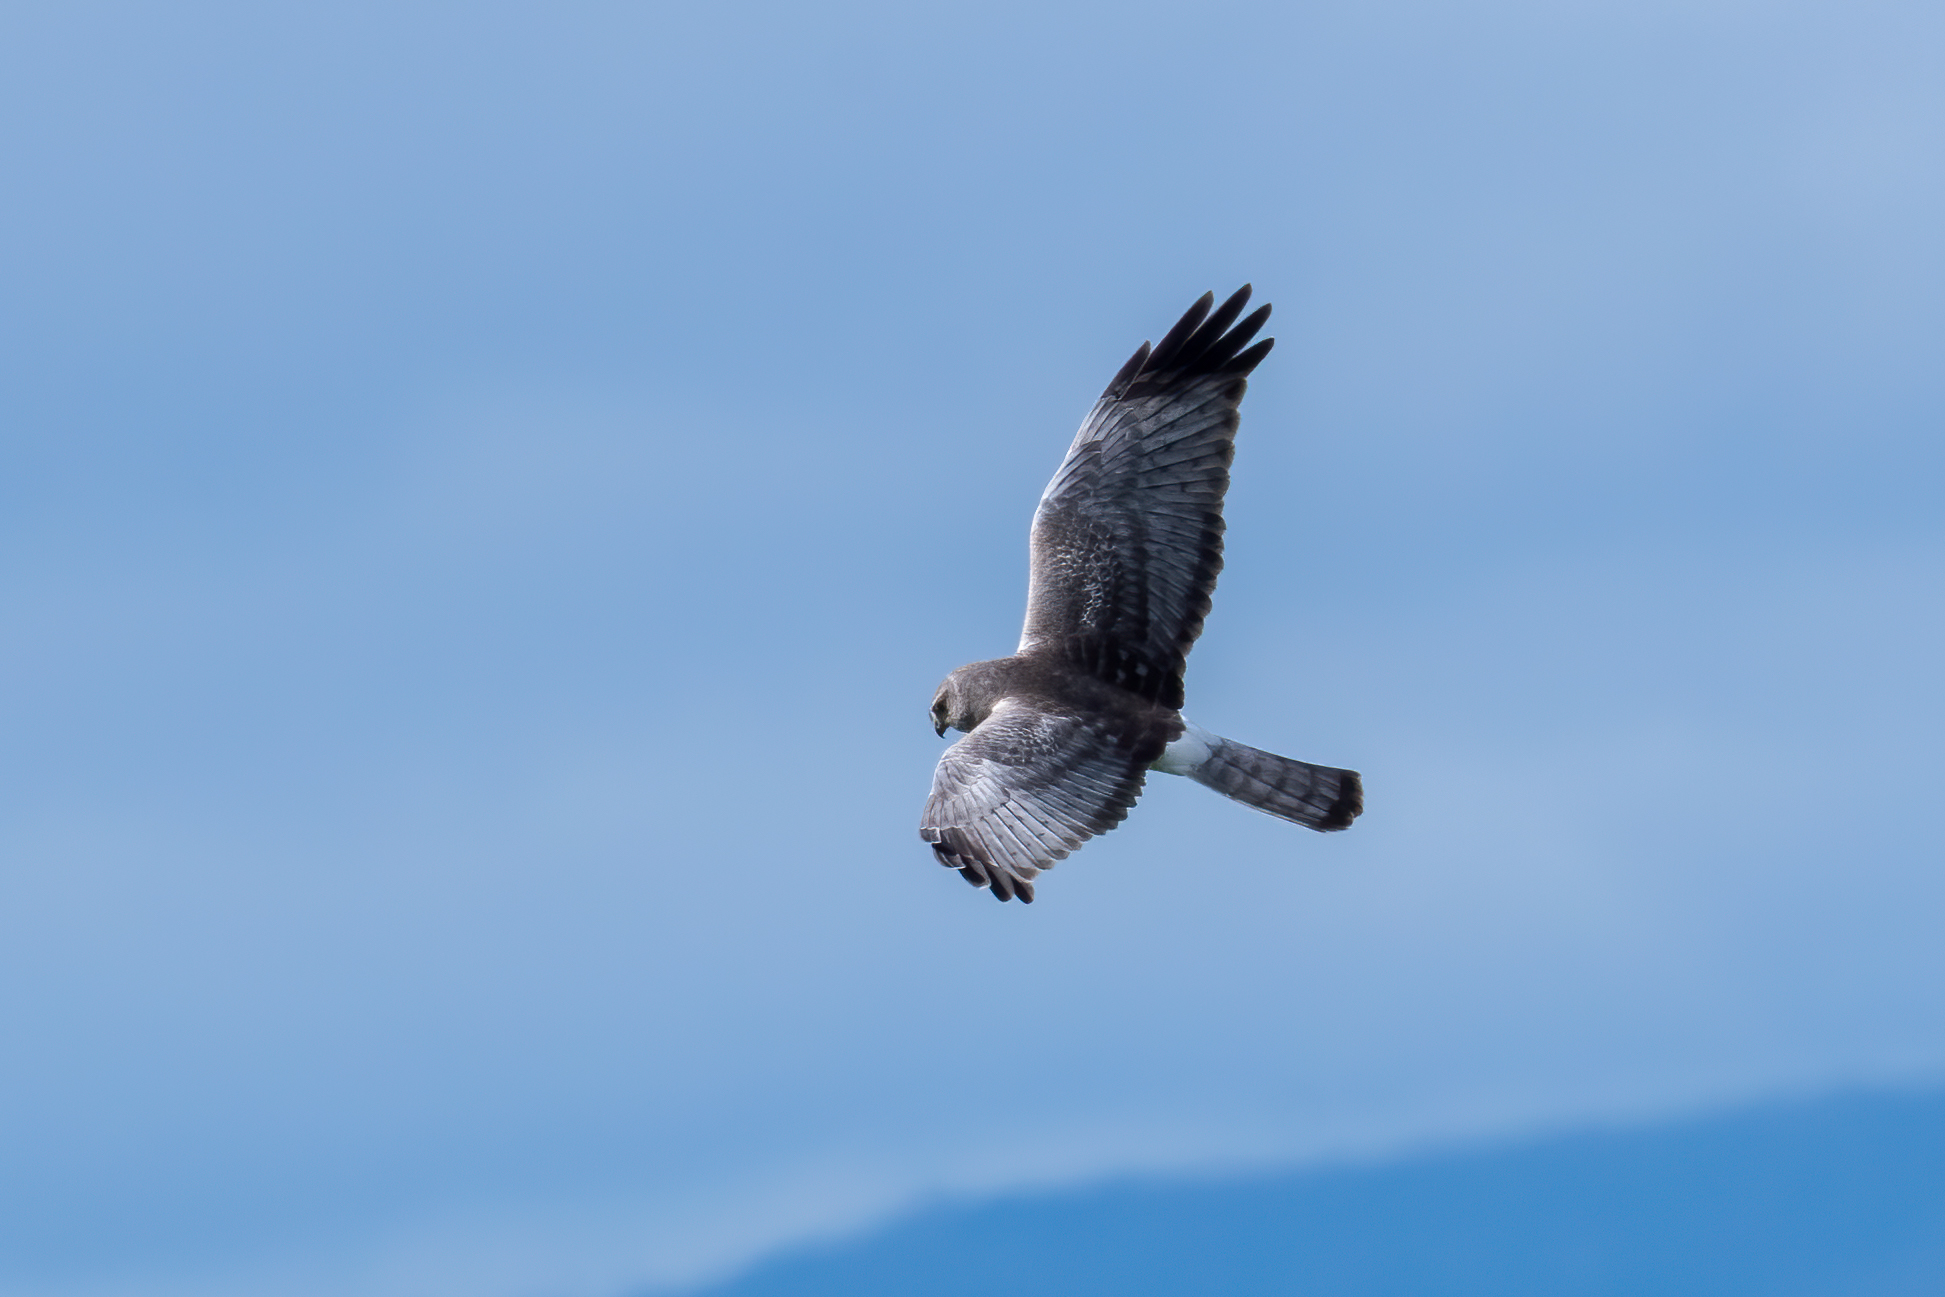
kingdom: Animalia
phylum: Chordata
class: Aves
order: Accipitriformes
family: Accipitridae
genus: Circus
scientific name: Circus cyaneus
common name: Hen harrier
